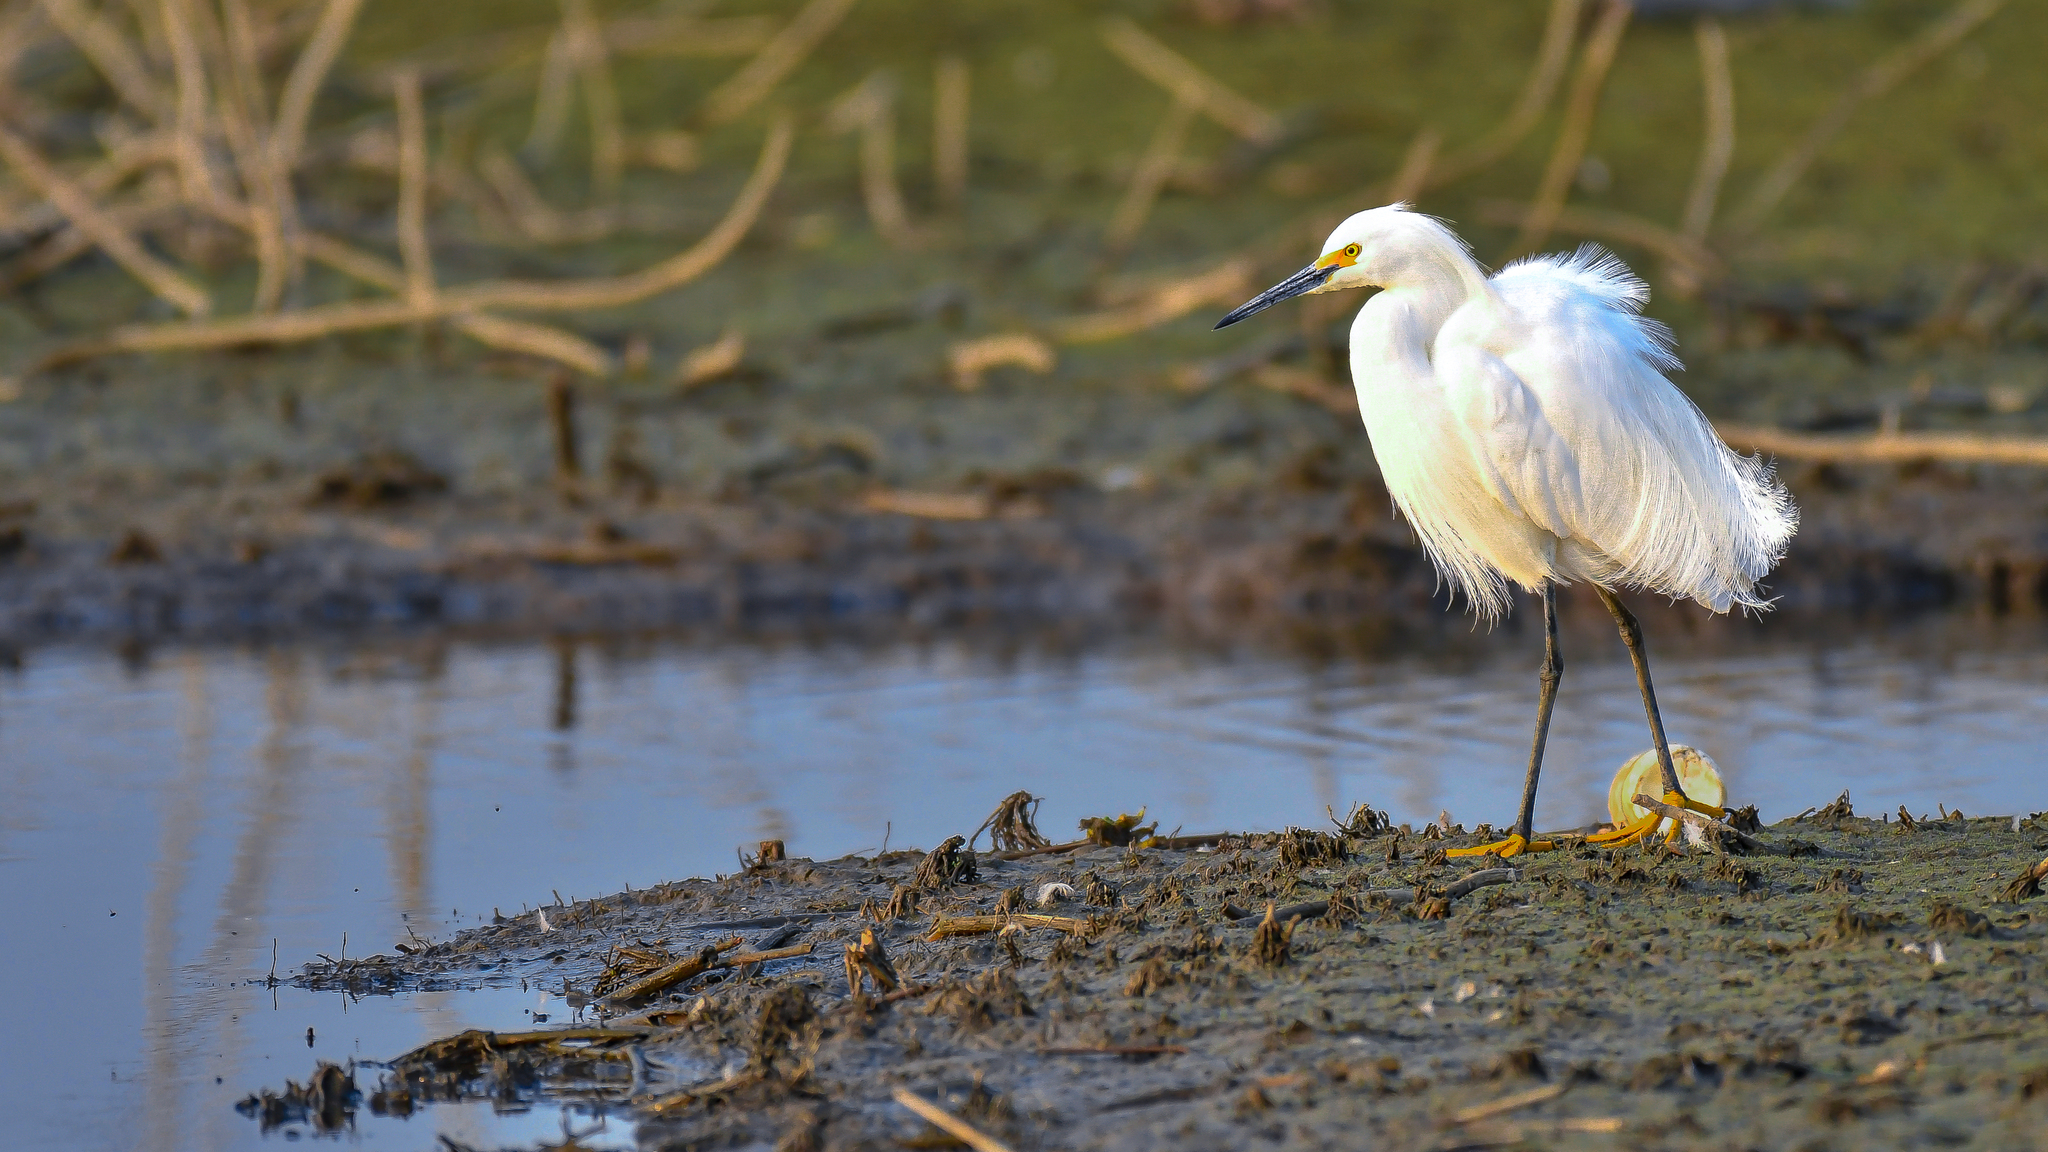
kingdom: Animalia
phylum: Chordata
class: Aves
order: Pelecaniformes
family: Ardeidae
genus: Egretta
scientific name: Egretta thula
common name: Snowy egret
